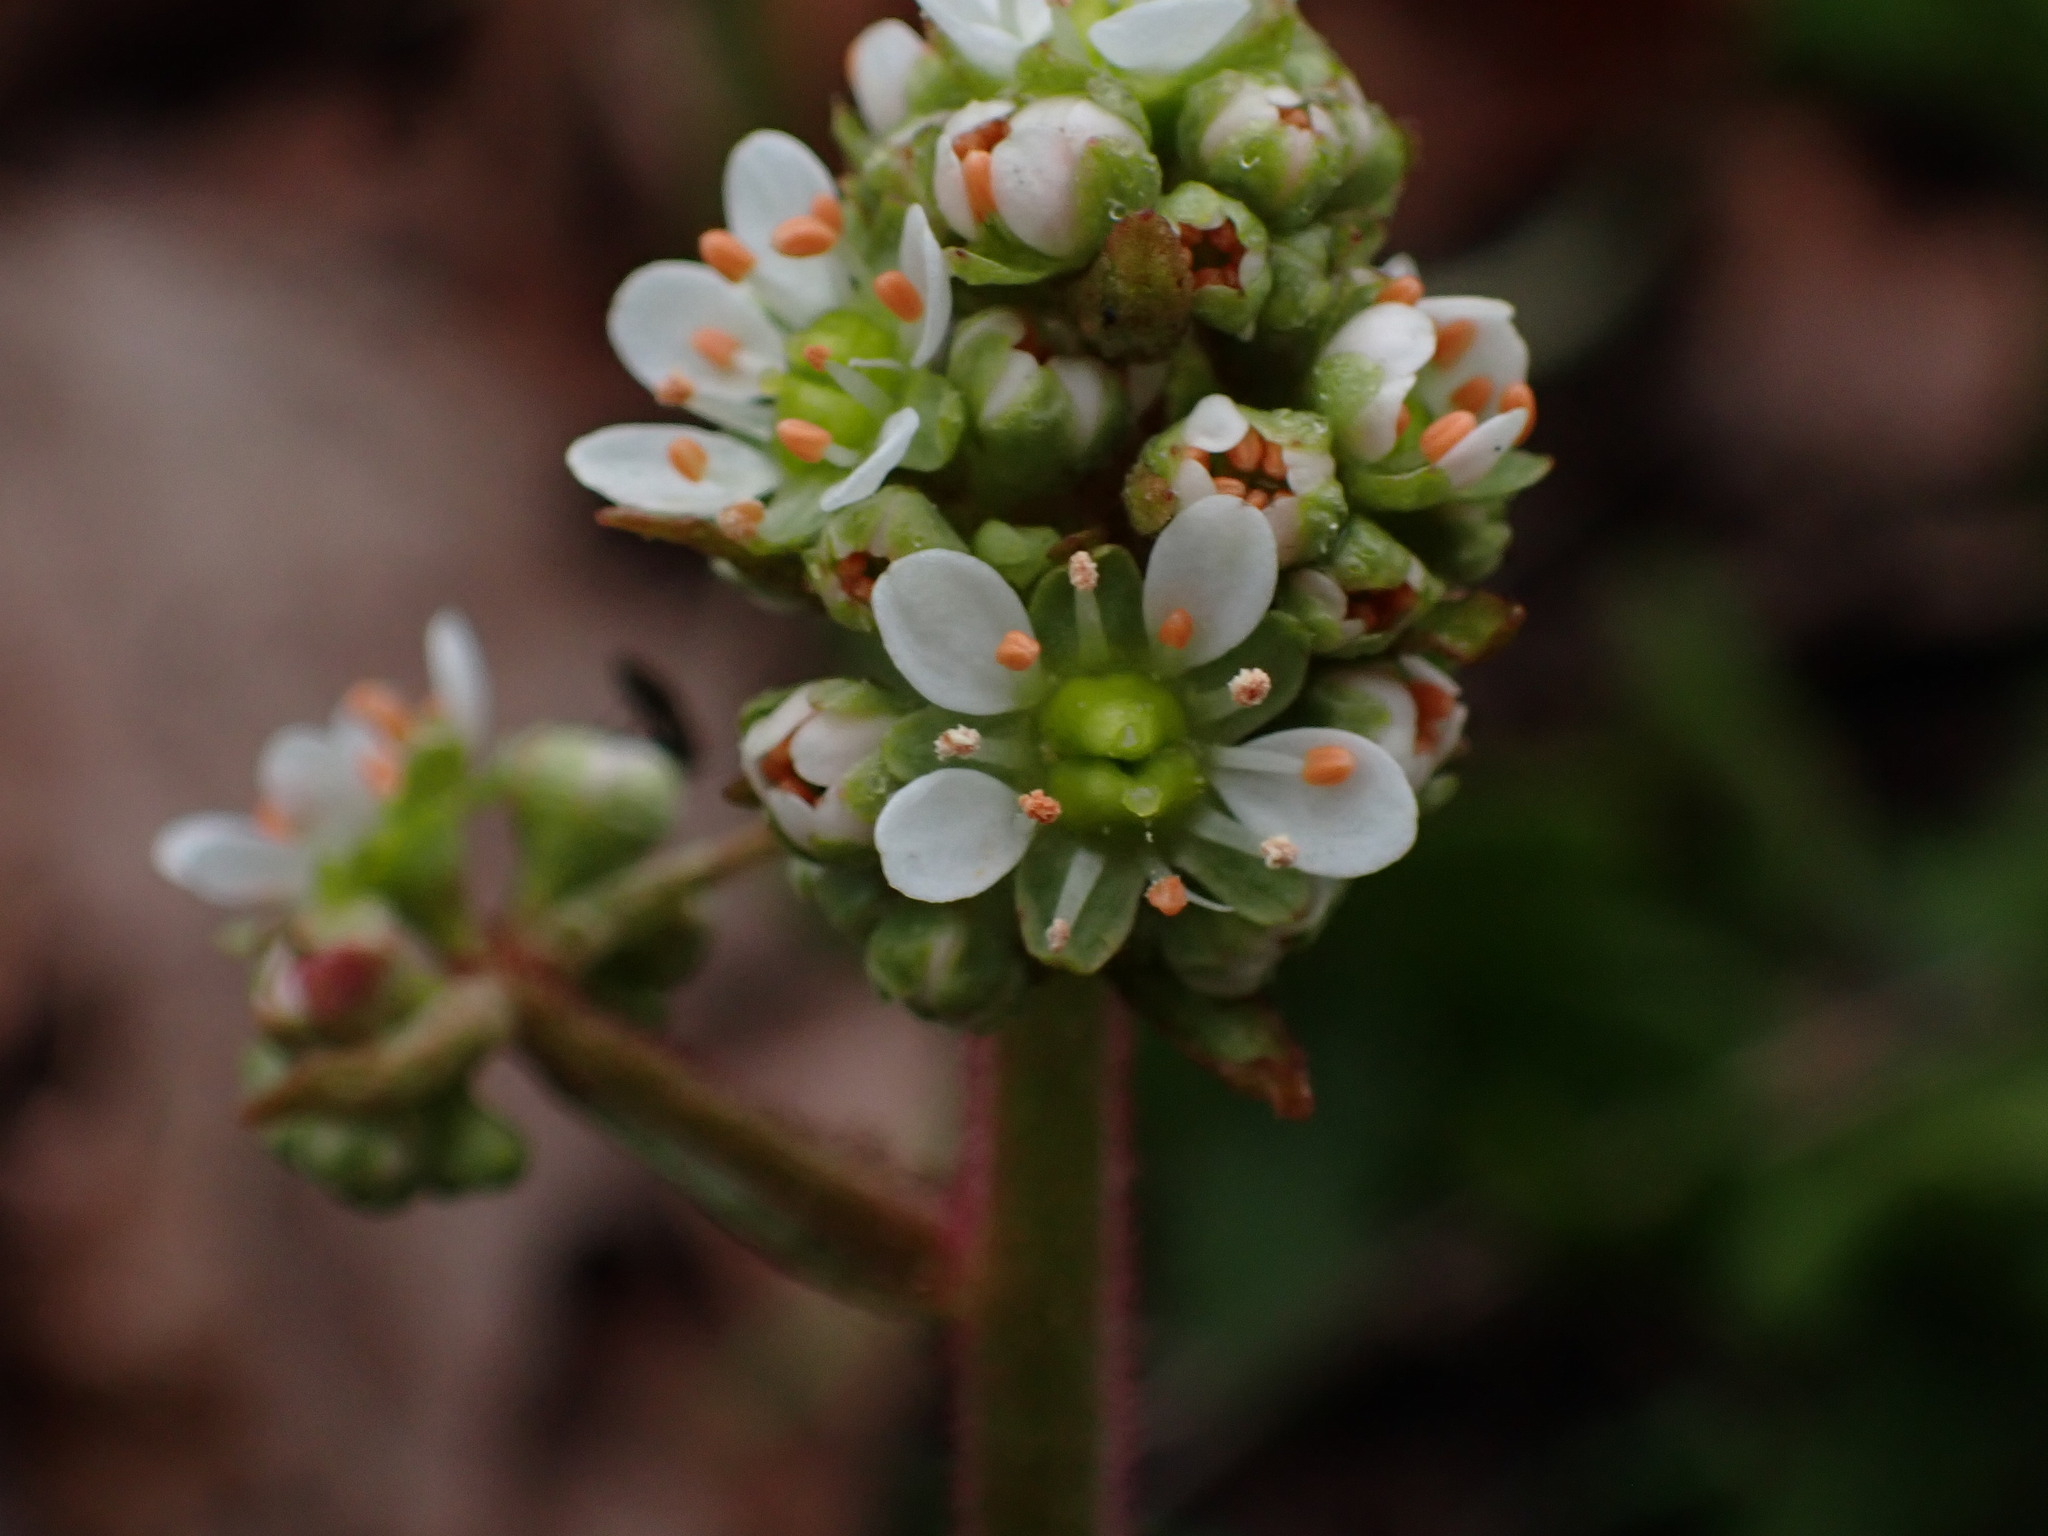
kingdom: Plantae
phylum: Tracheophyta
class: Magnoliopsida
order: Saxifragales
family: Saxifragaceae
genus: Micranthes
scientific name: Micranthes integrifolia
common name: Wholeleaf saxifrage
